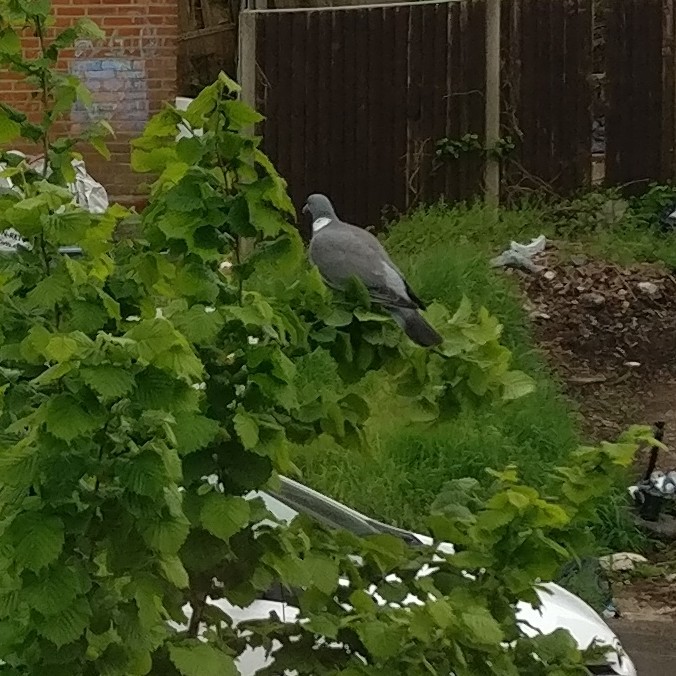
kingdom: Animalia
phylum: Chordata
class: Aves
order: Columbiformes
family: Columbidae
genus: Columba
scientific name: Columba palumbus
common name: Common wood pigeon
